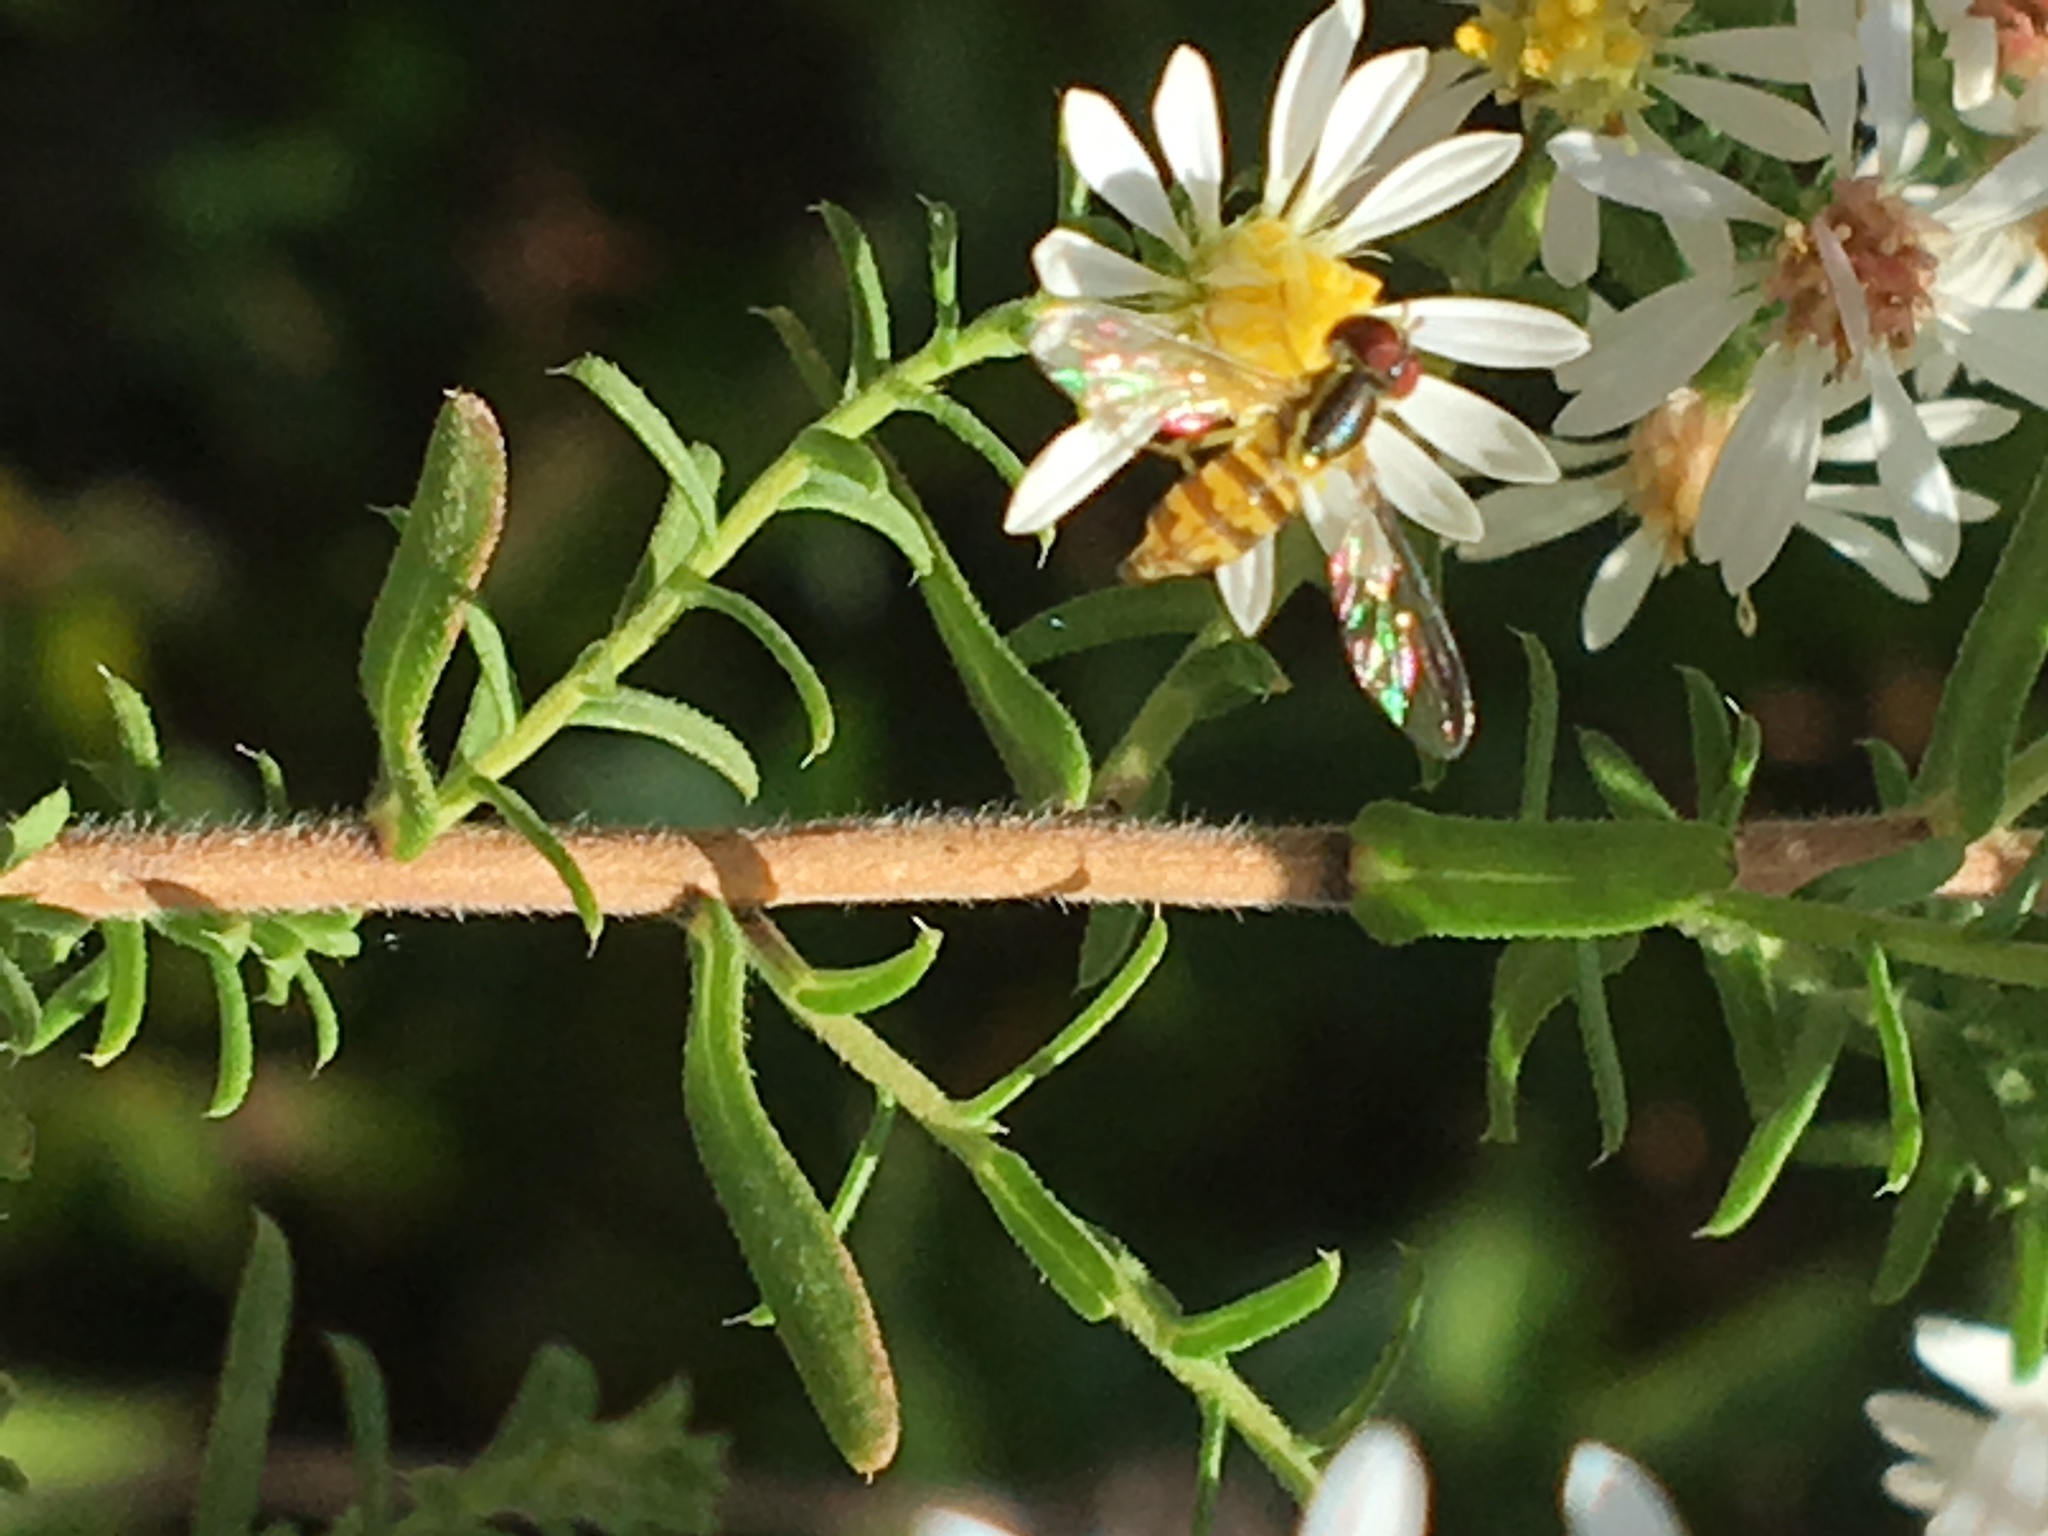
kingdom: Animalia
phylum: Arthropoda
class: Insecta
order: Diptera
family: Syrphidae
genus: Toxomerus
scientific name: Toxomerus geminatus
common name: Eastern calligrapher
